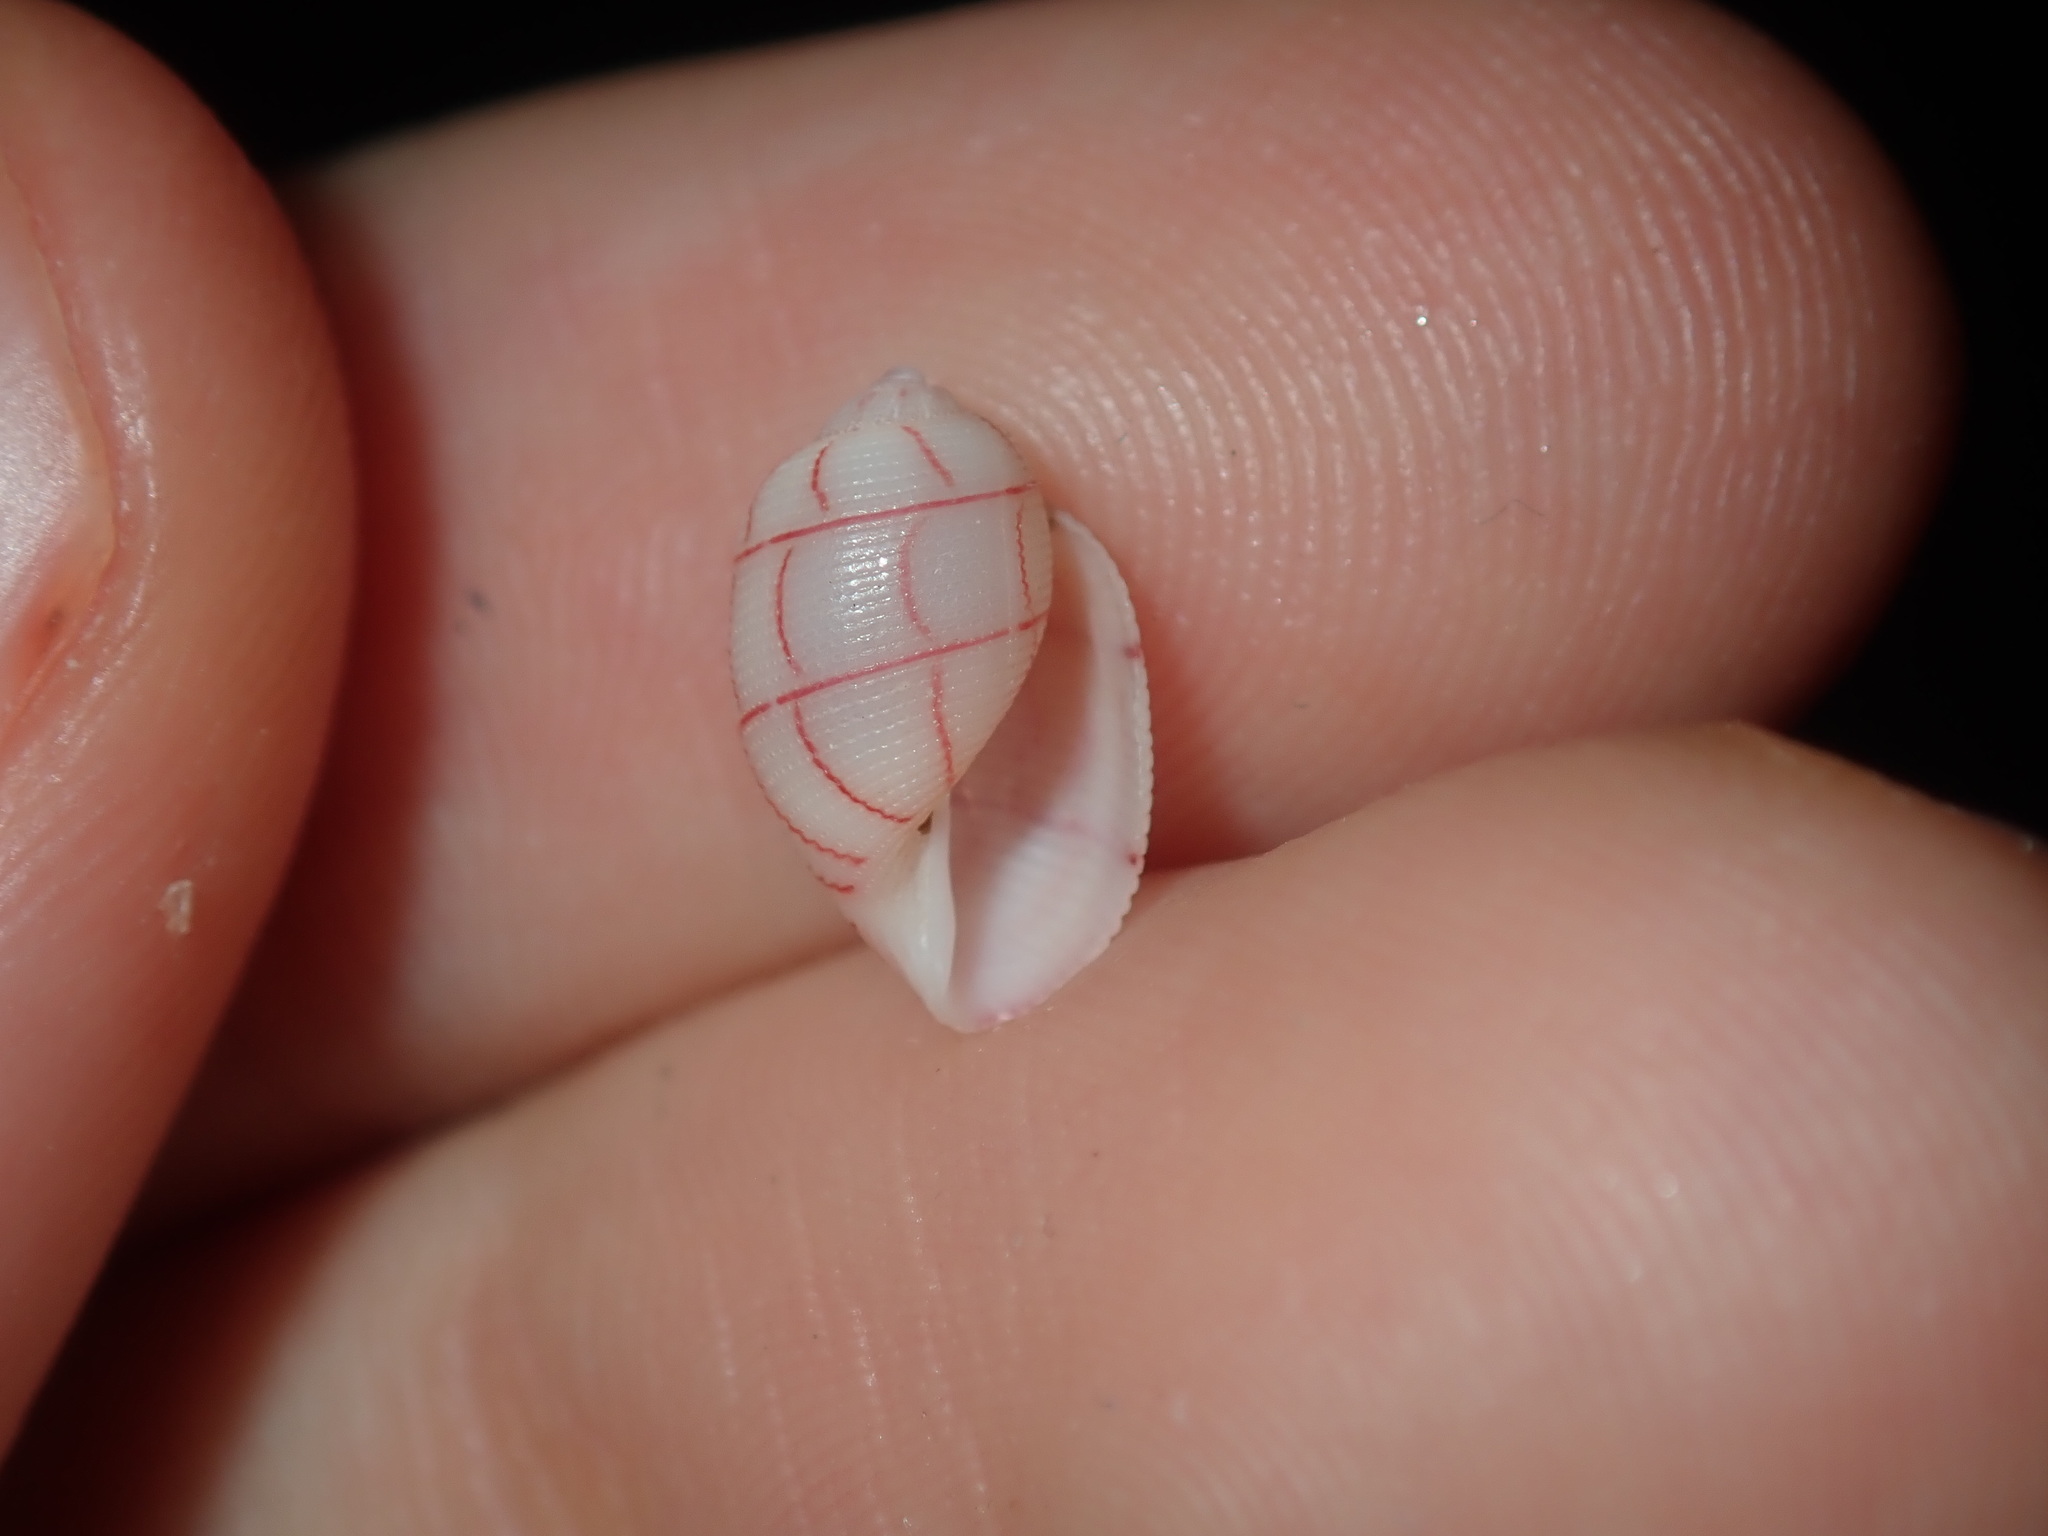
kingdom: Animalia
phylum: Mollusca
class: Gastropoda
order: Cephalaspidea
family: Aplustridae
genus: Bullina
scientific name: Bullina lineata
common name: Lined bubble snail
